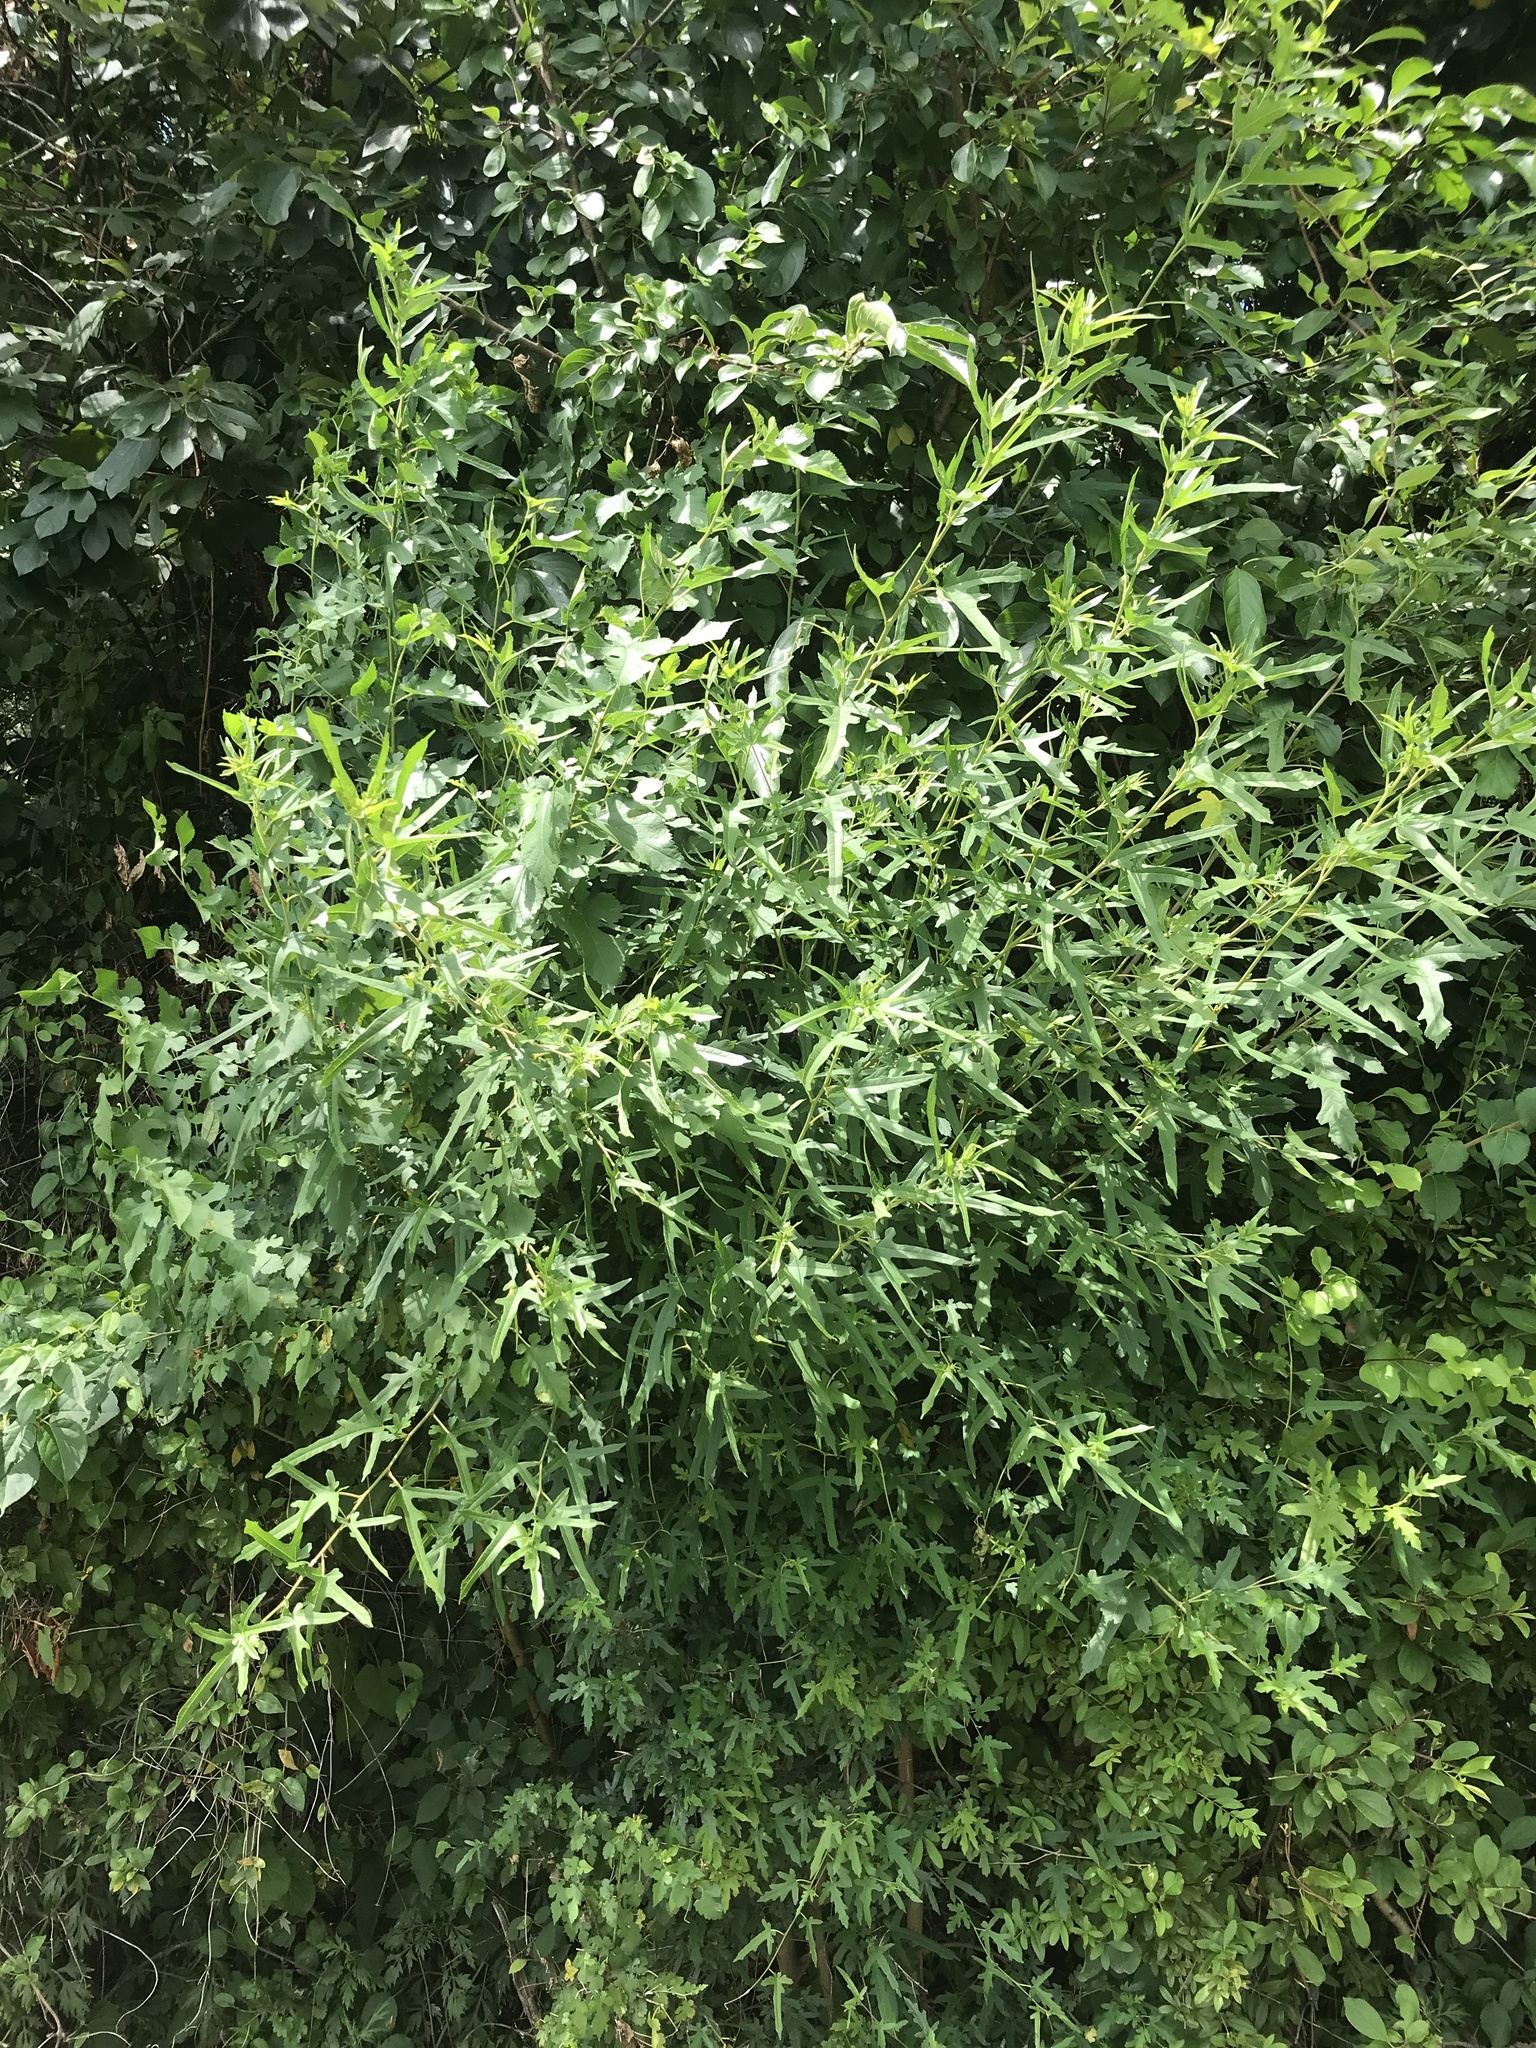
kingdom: Plantae
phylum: Tracheophyta
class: Magnoliopsida
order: Rosales
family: Moraceae
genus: Morus
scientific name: Morus indica
